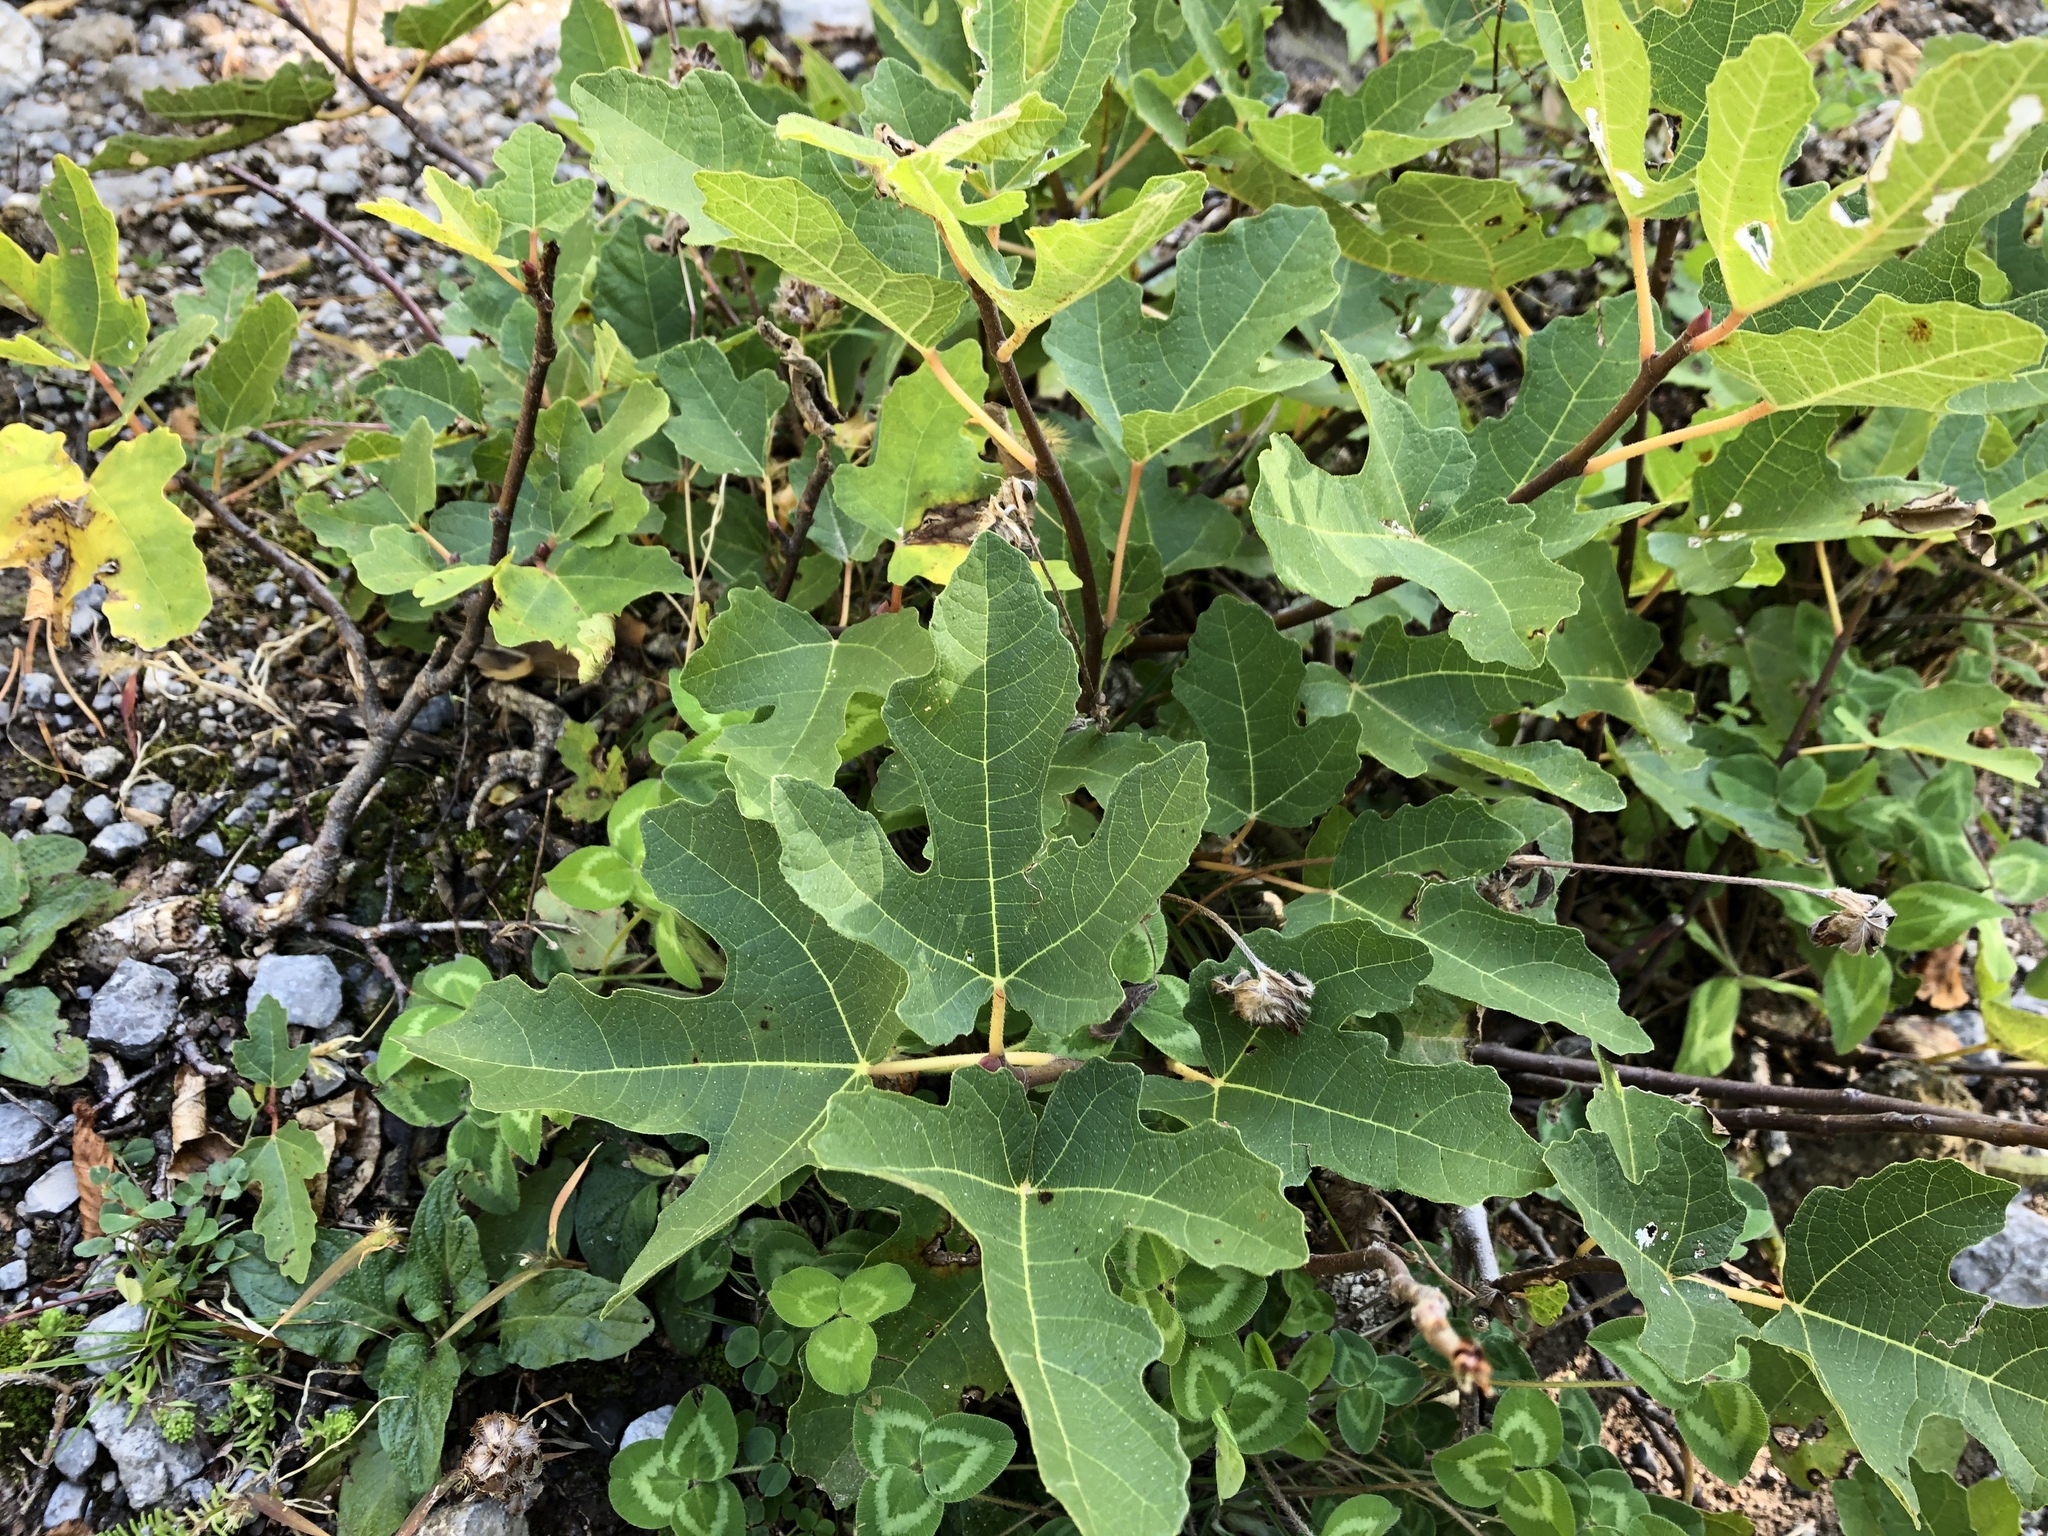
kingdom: Plantae
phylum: Tracheophyta
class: Magnoliopsida
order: Rosales
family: Moraceae
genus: Ficus
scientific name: Ficus carica
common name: Fig
